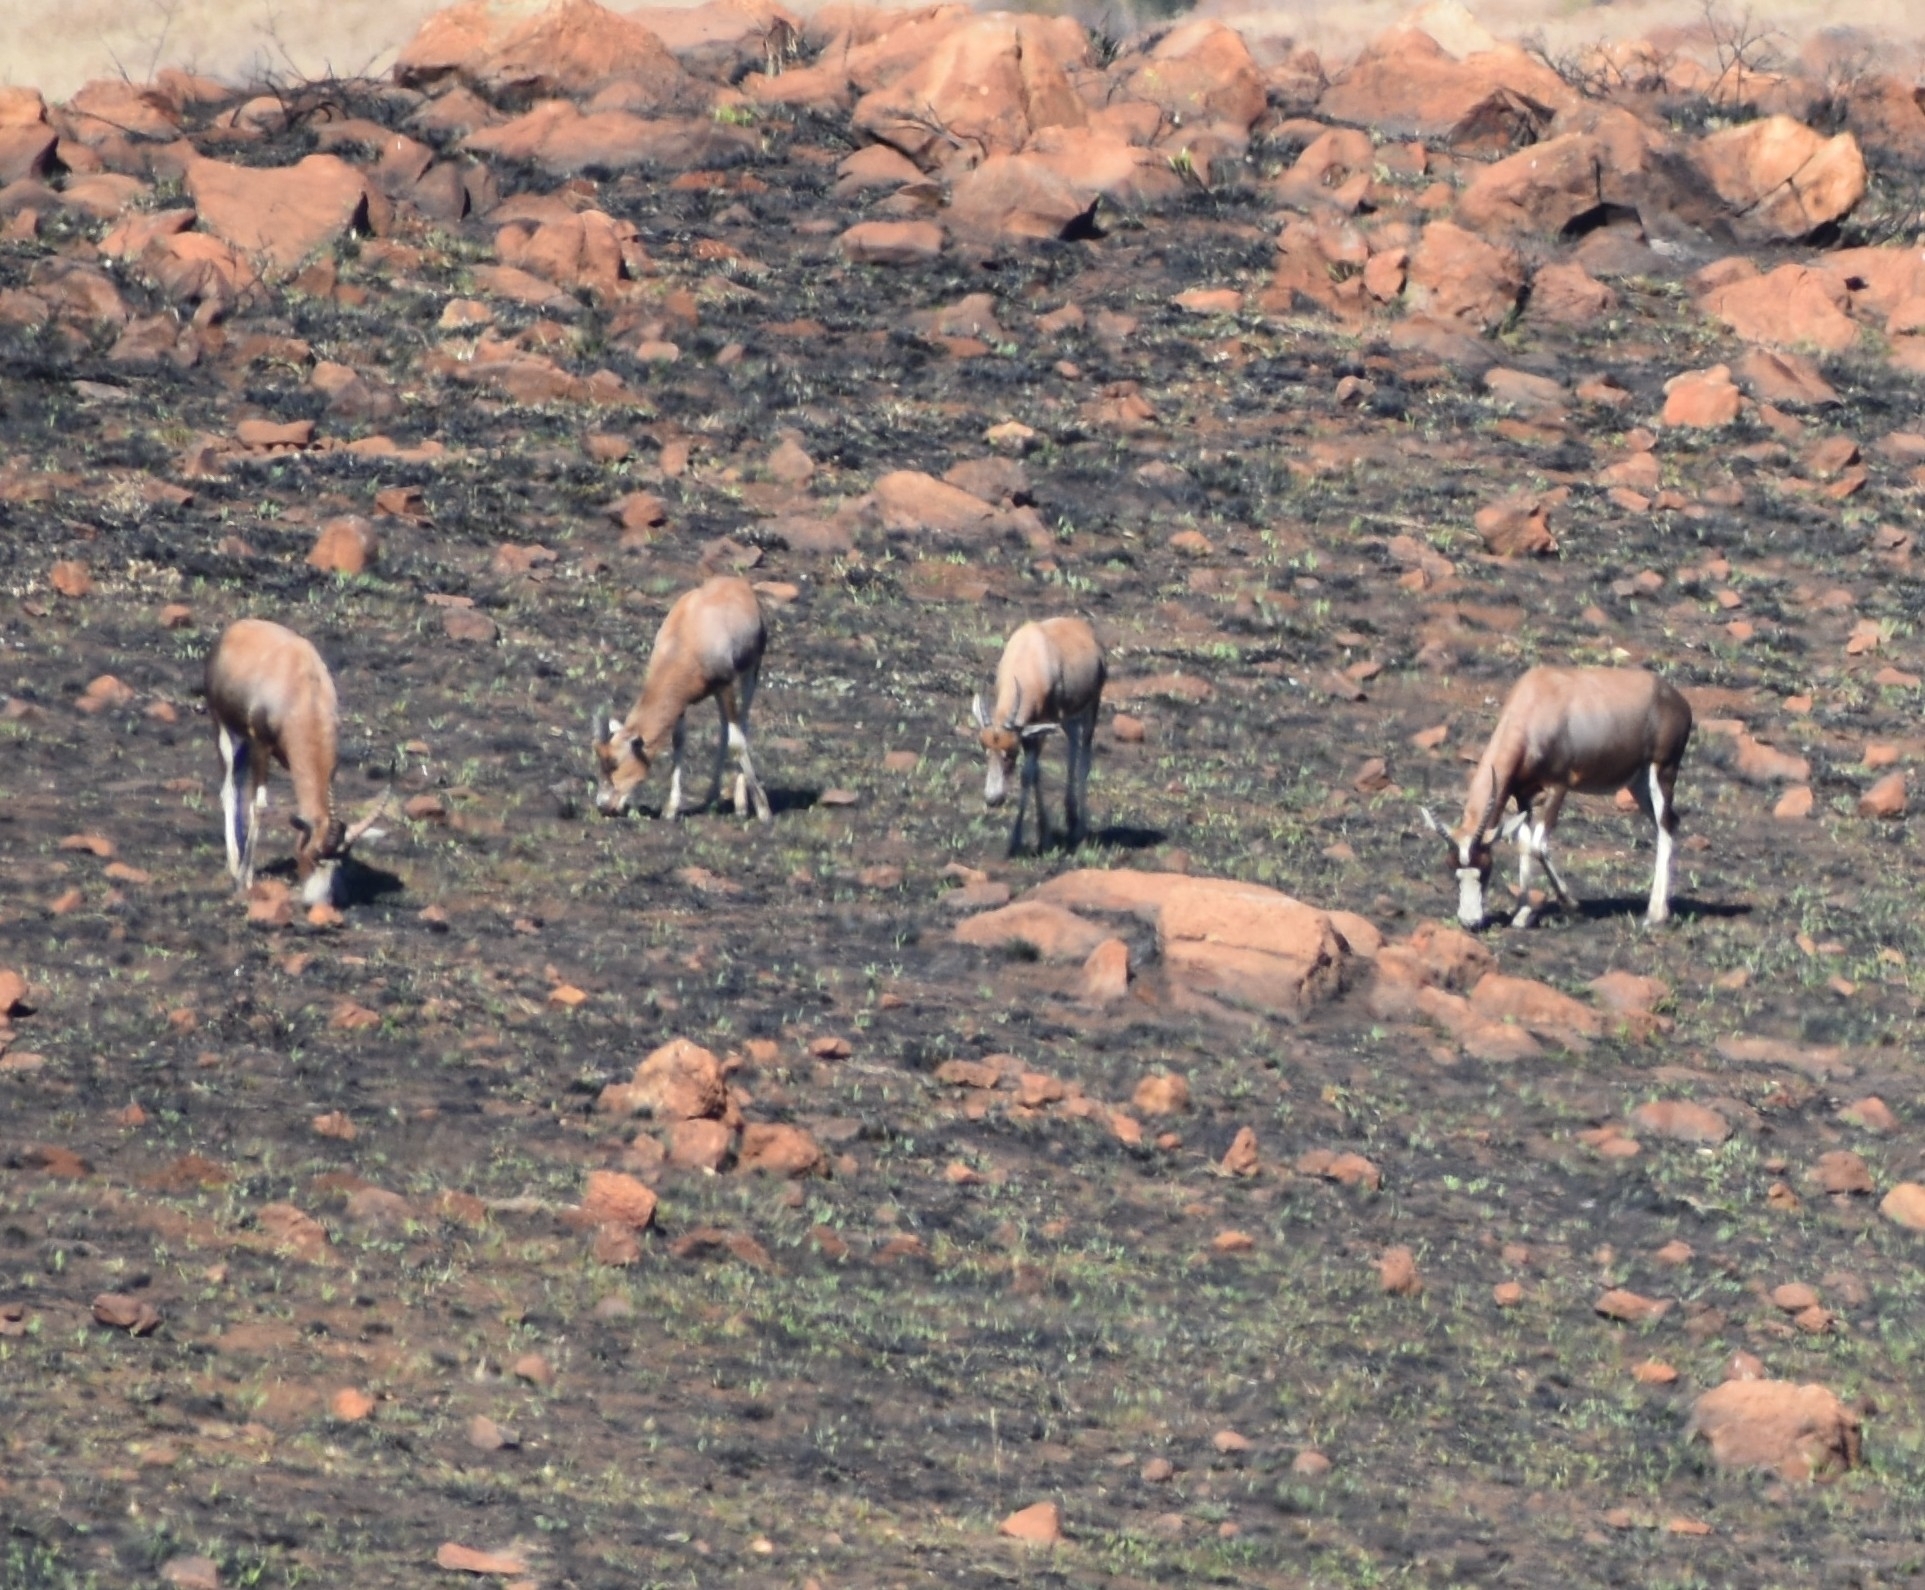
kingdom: Animalia
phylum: Chordata
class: Mammalia
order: Artiodactyla
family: Bovidae
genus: Damaliscus
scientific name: Damaliscus pygargus
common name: Bontebok
